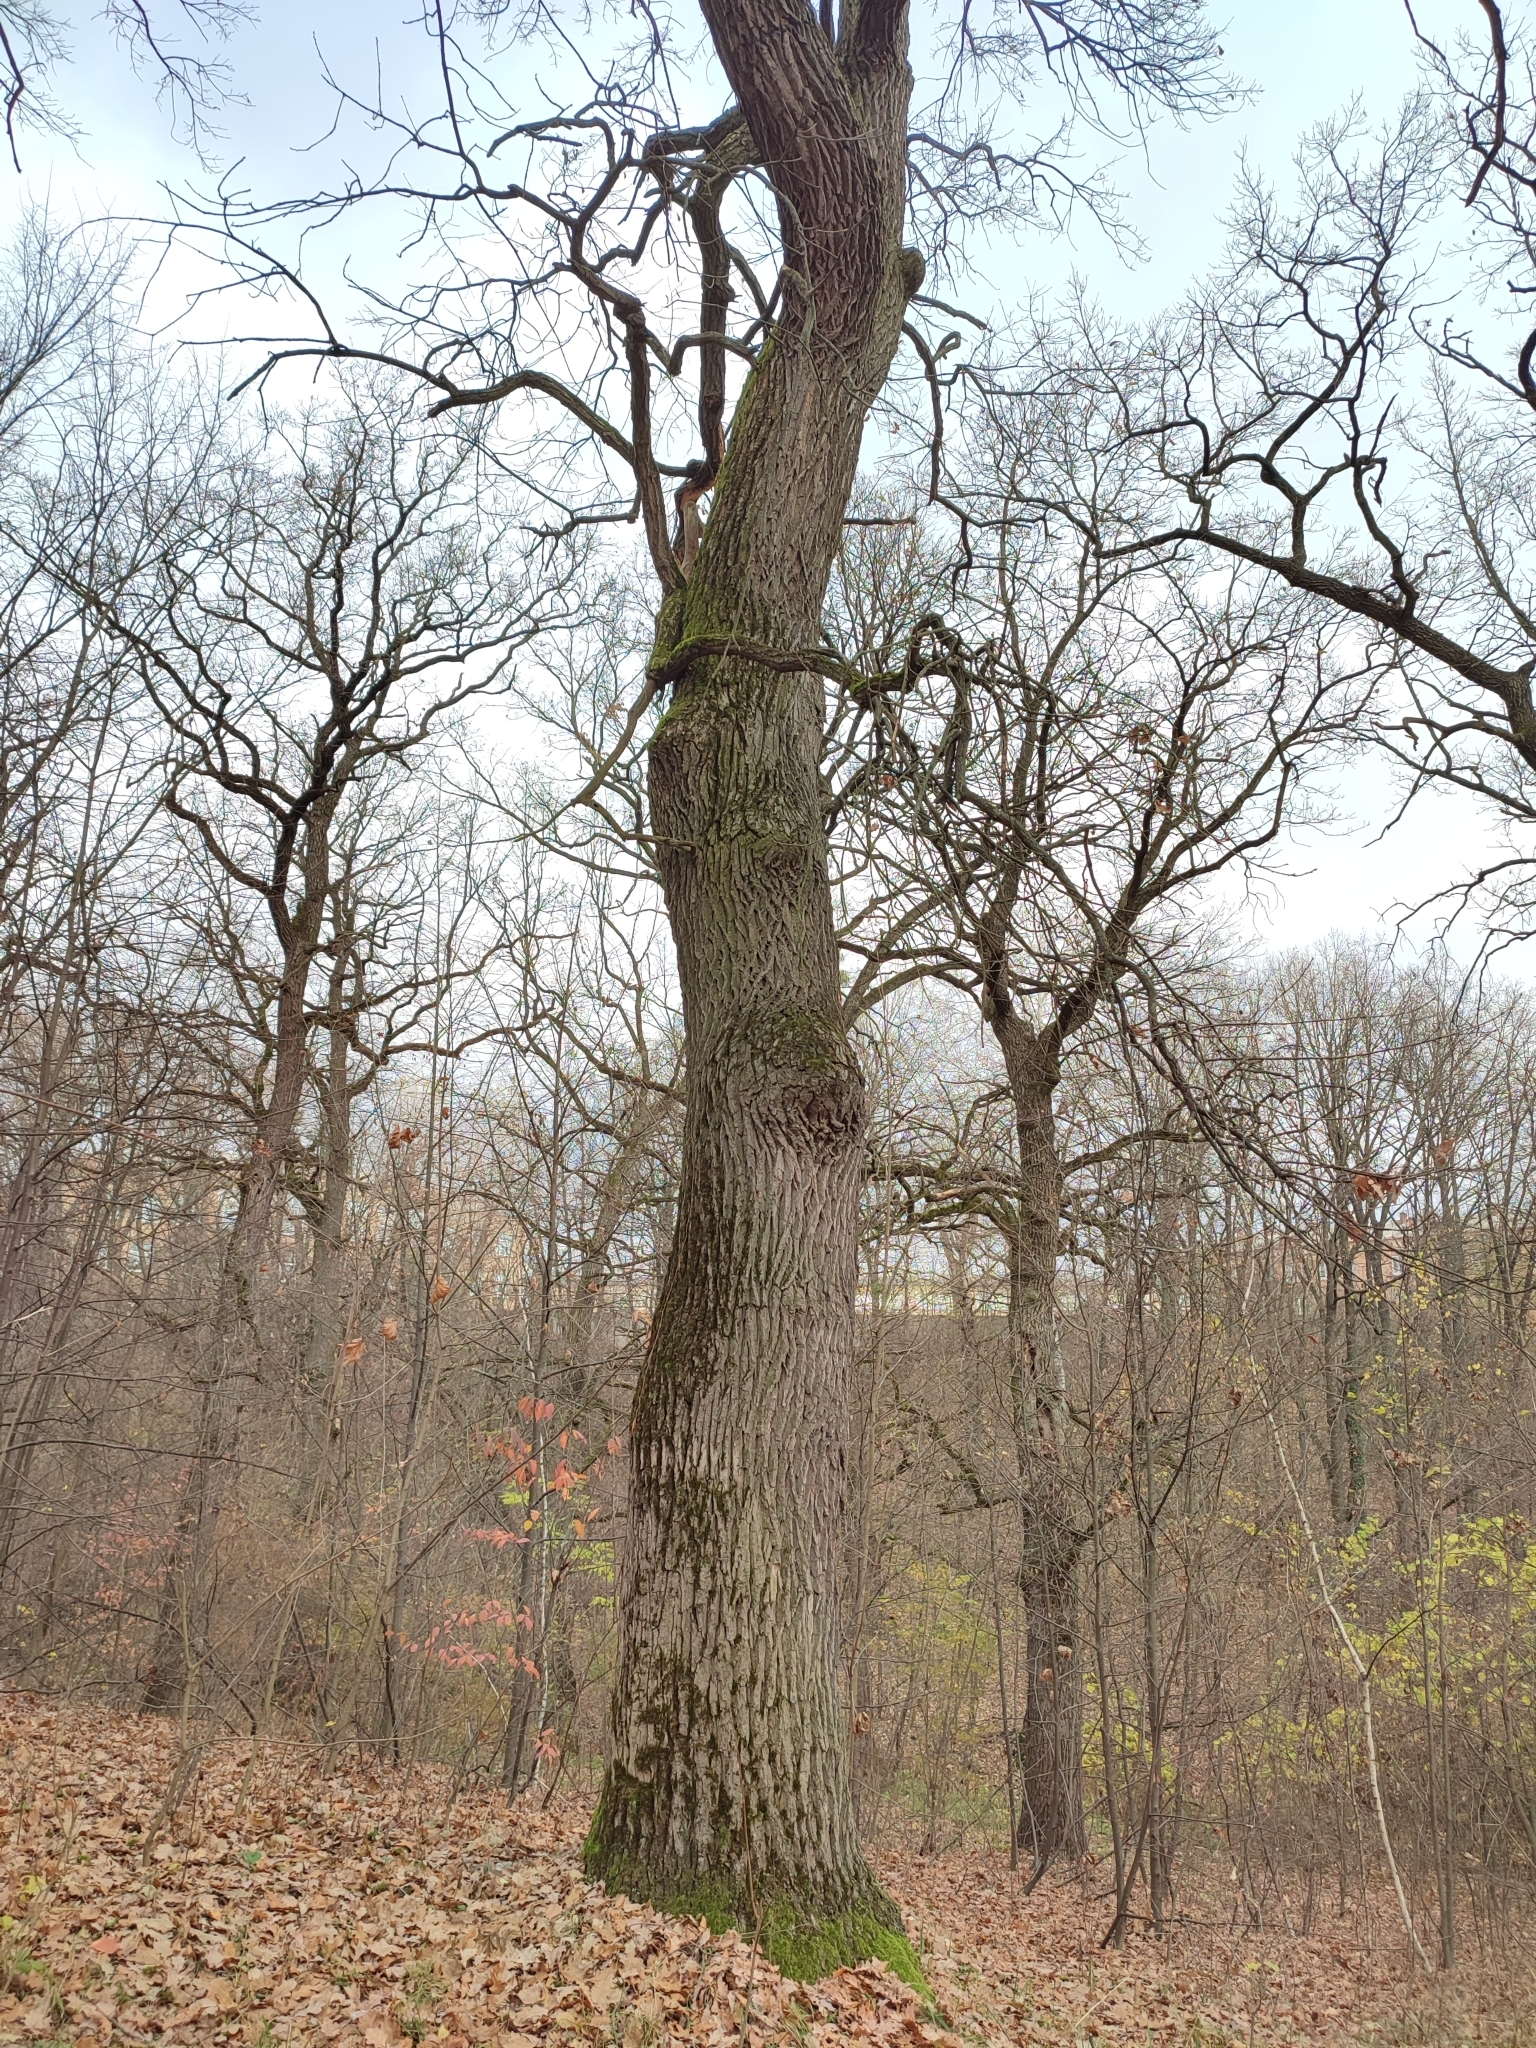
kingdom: Plantae
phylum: Tracheophyta
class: Magnoliopsida
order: Fagales
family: Fagaceae
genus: Quercus
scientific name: Quercus robur
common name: Pedunculate oak
